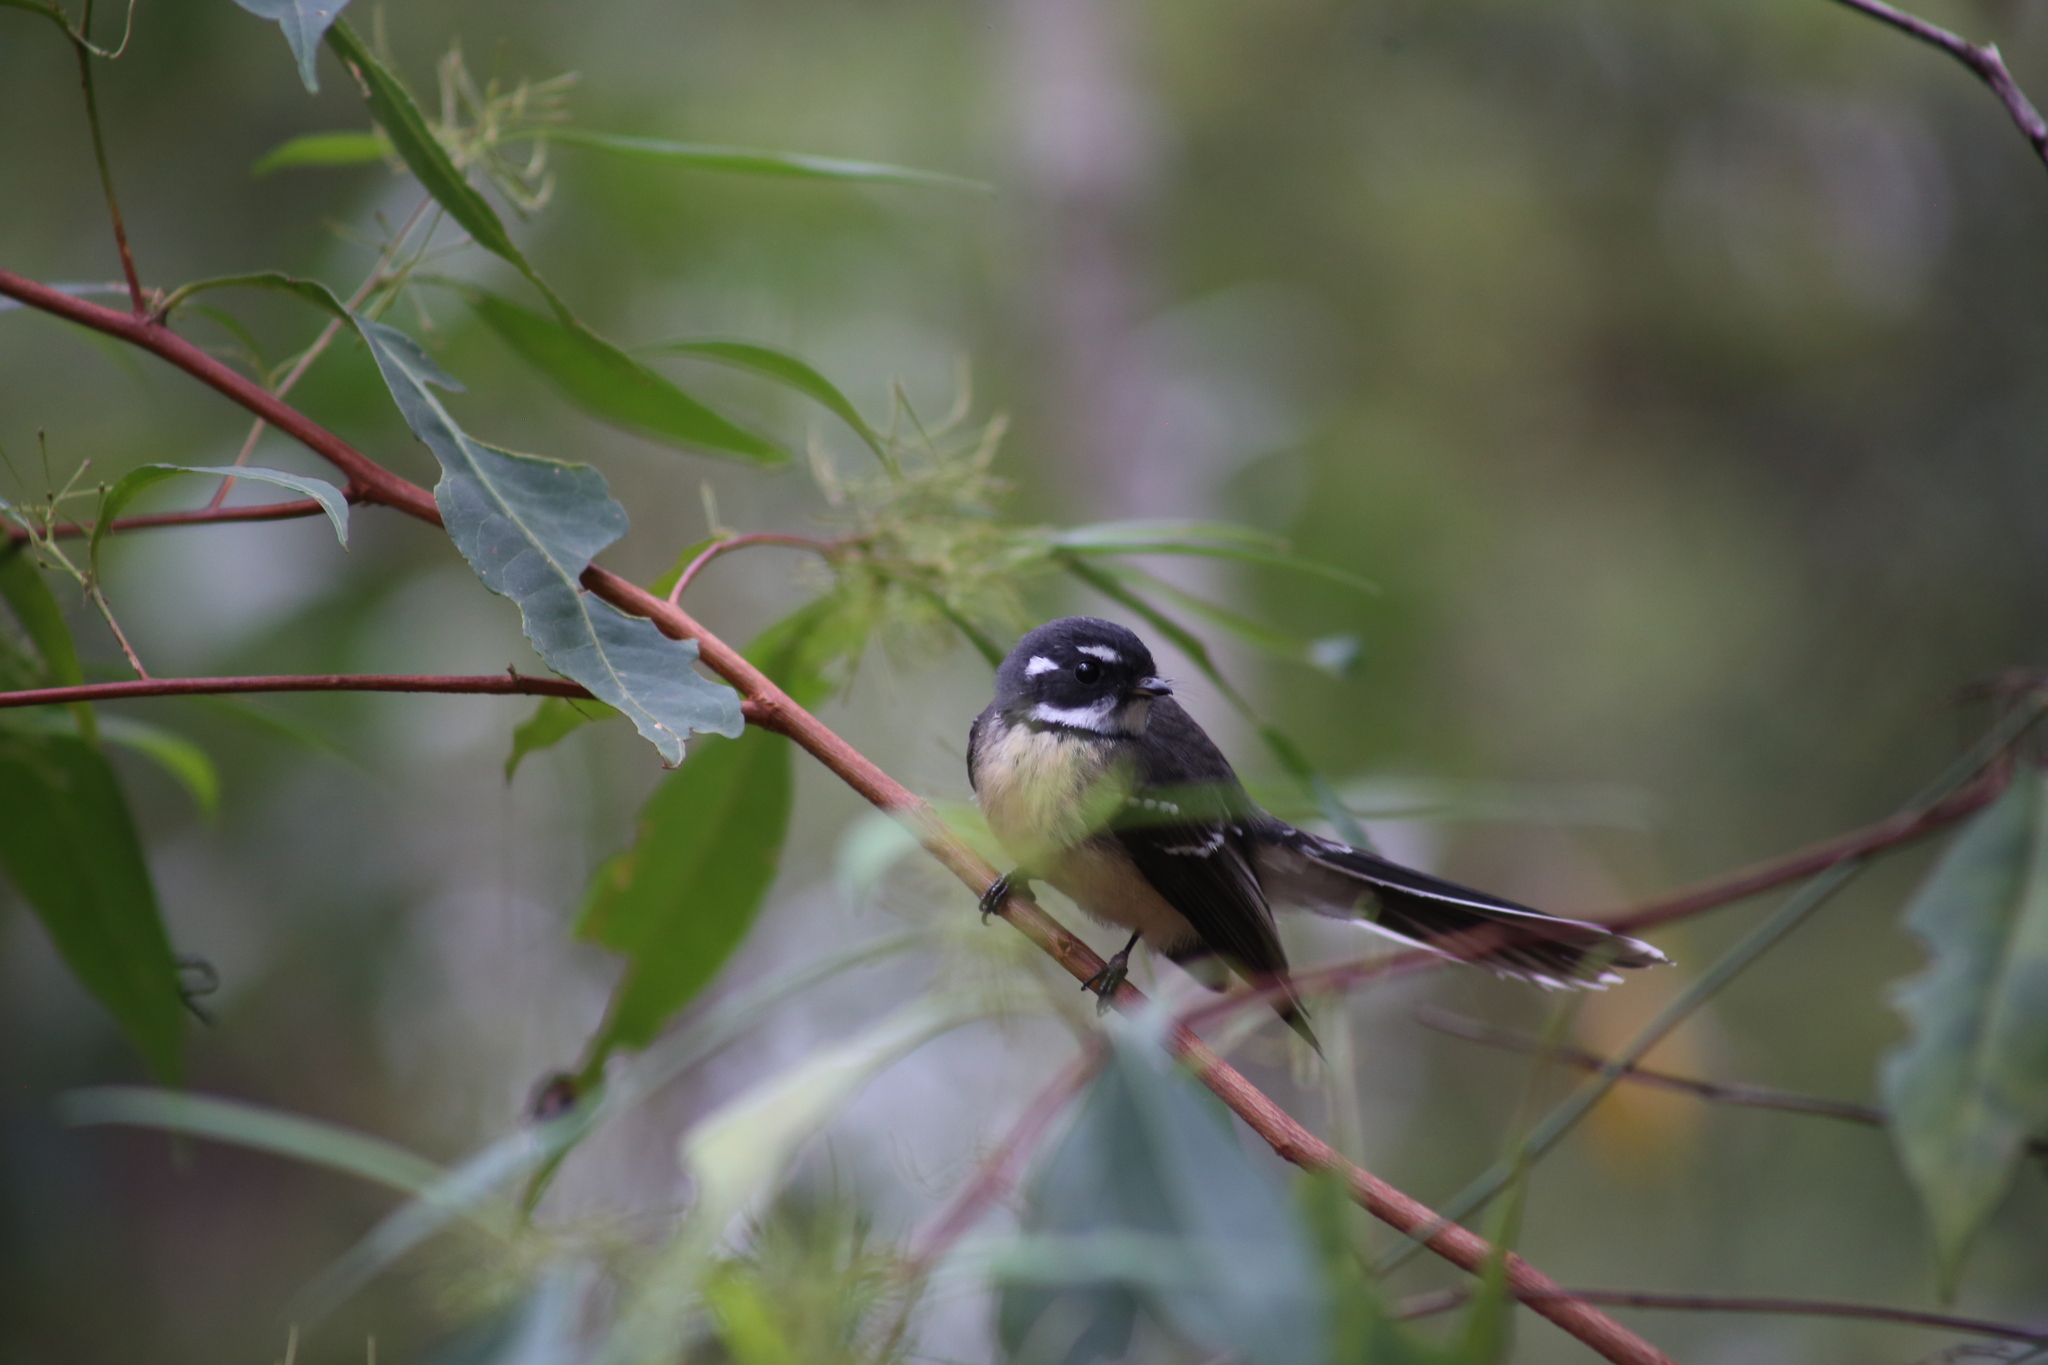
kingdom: Animalia
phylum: Chordata
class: Aves
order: Passeriformes
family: Rhipiduridae
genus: Rhipidura
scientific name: Rhipidura albiscapa
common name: Grey fantail
